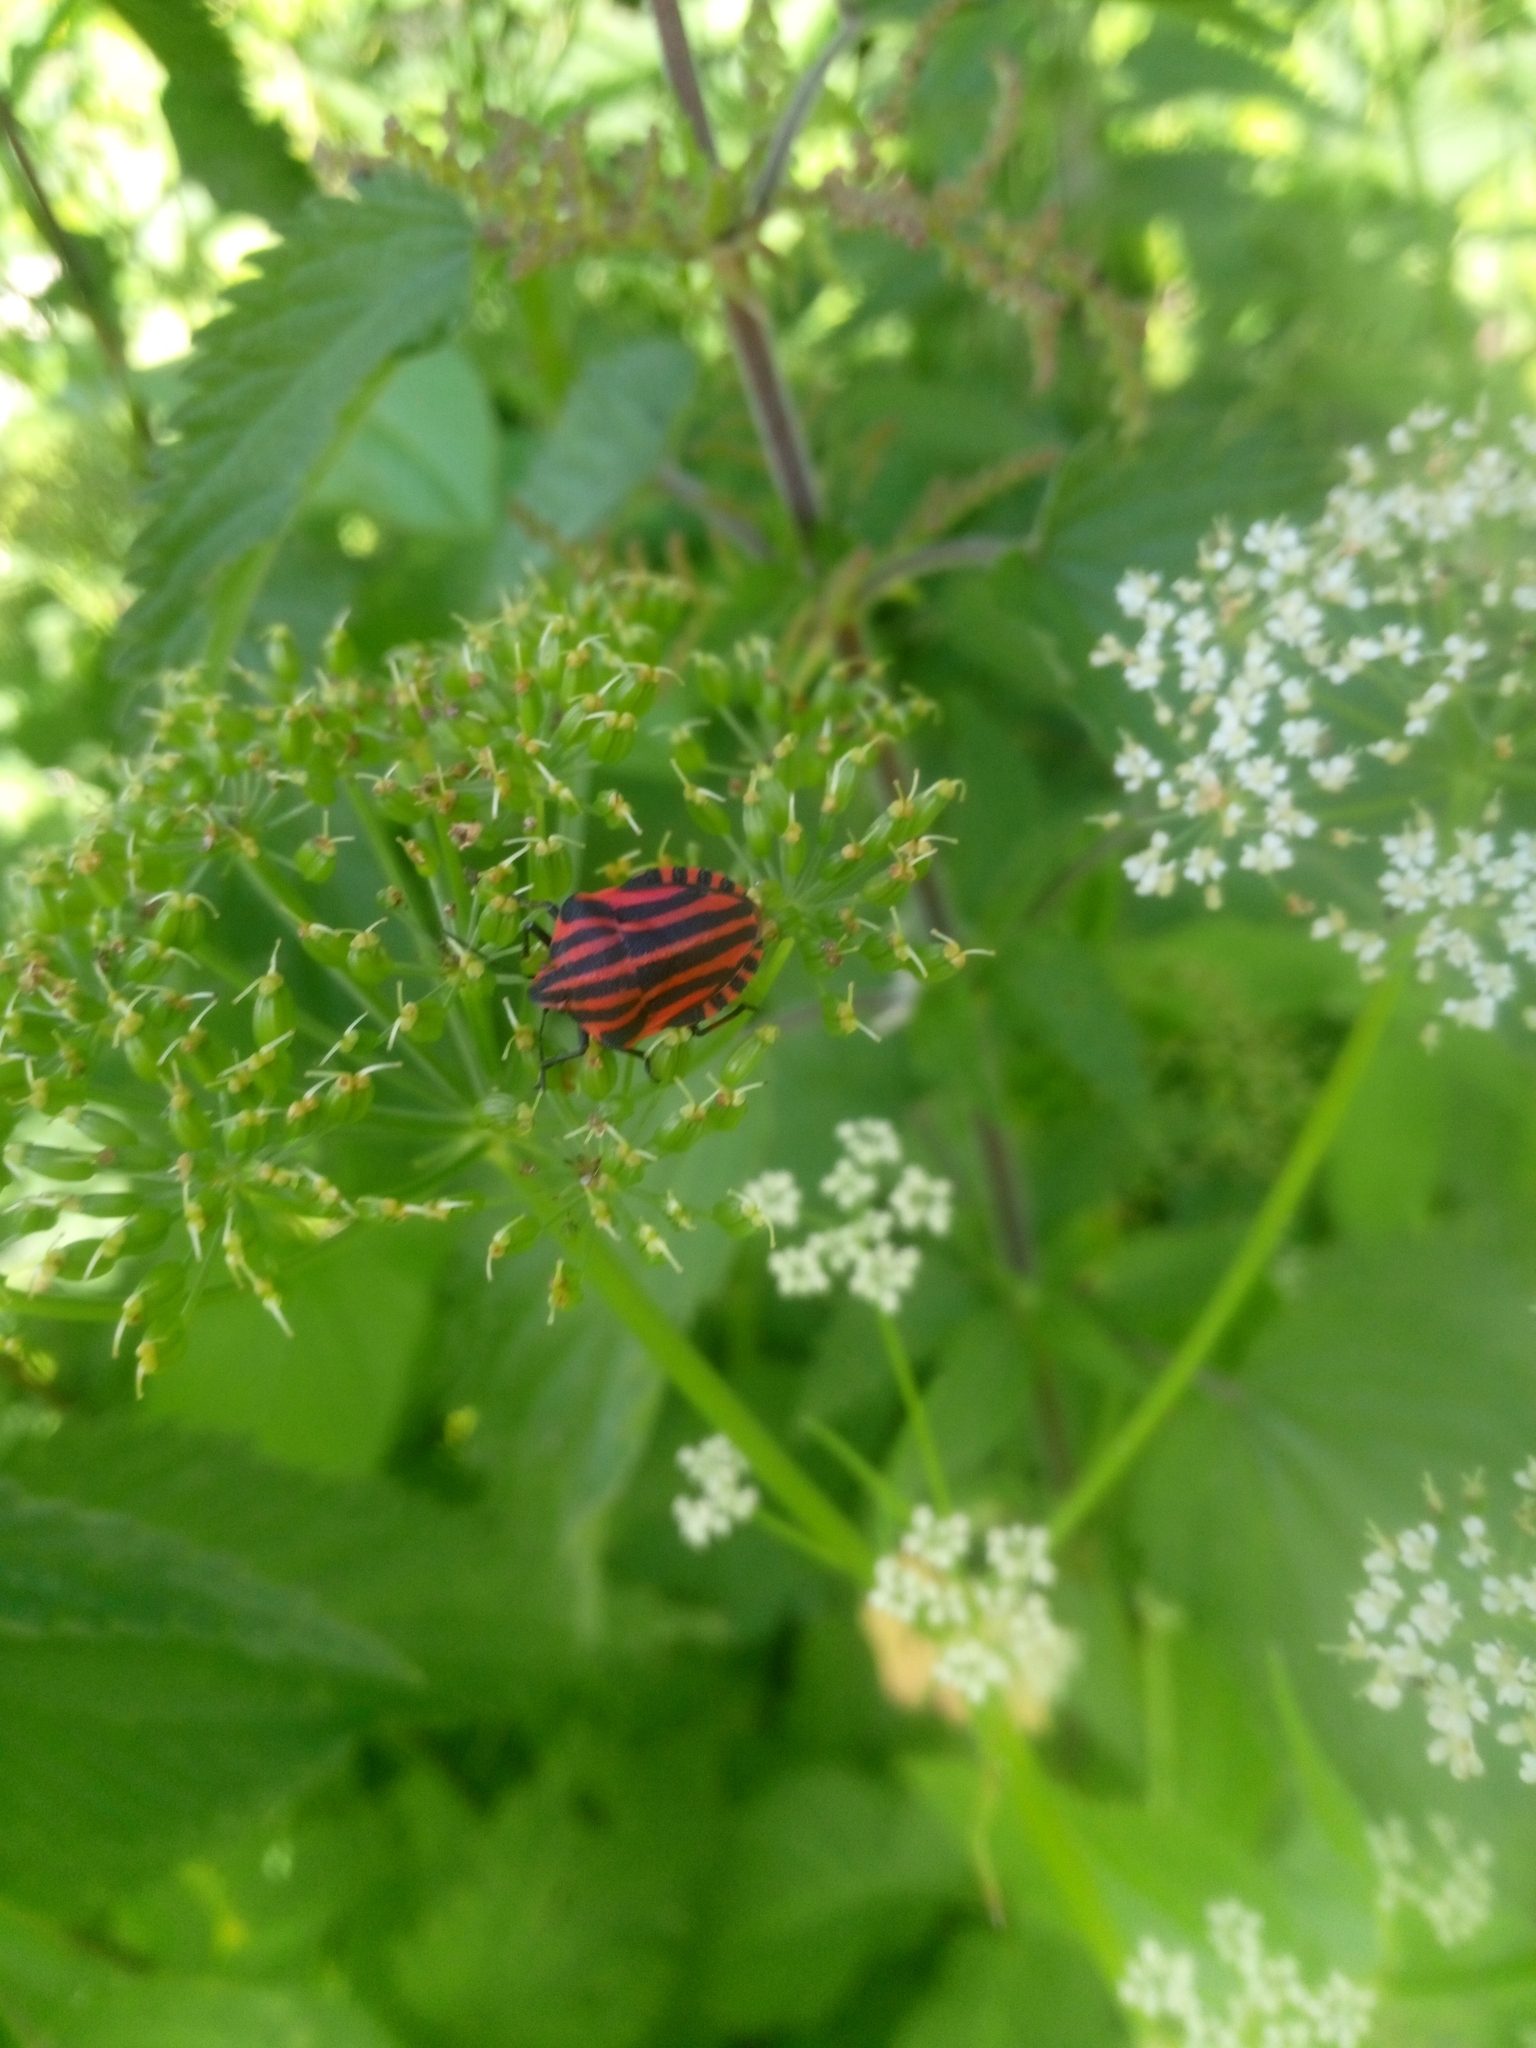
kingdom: Animalia
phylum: Arthropoda
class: Insecta
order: Hemiptera
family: Pentatomidae
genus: Graphosoma
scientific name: Graphosoma italicum
